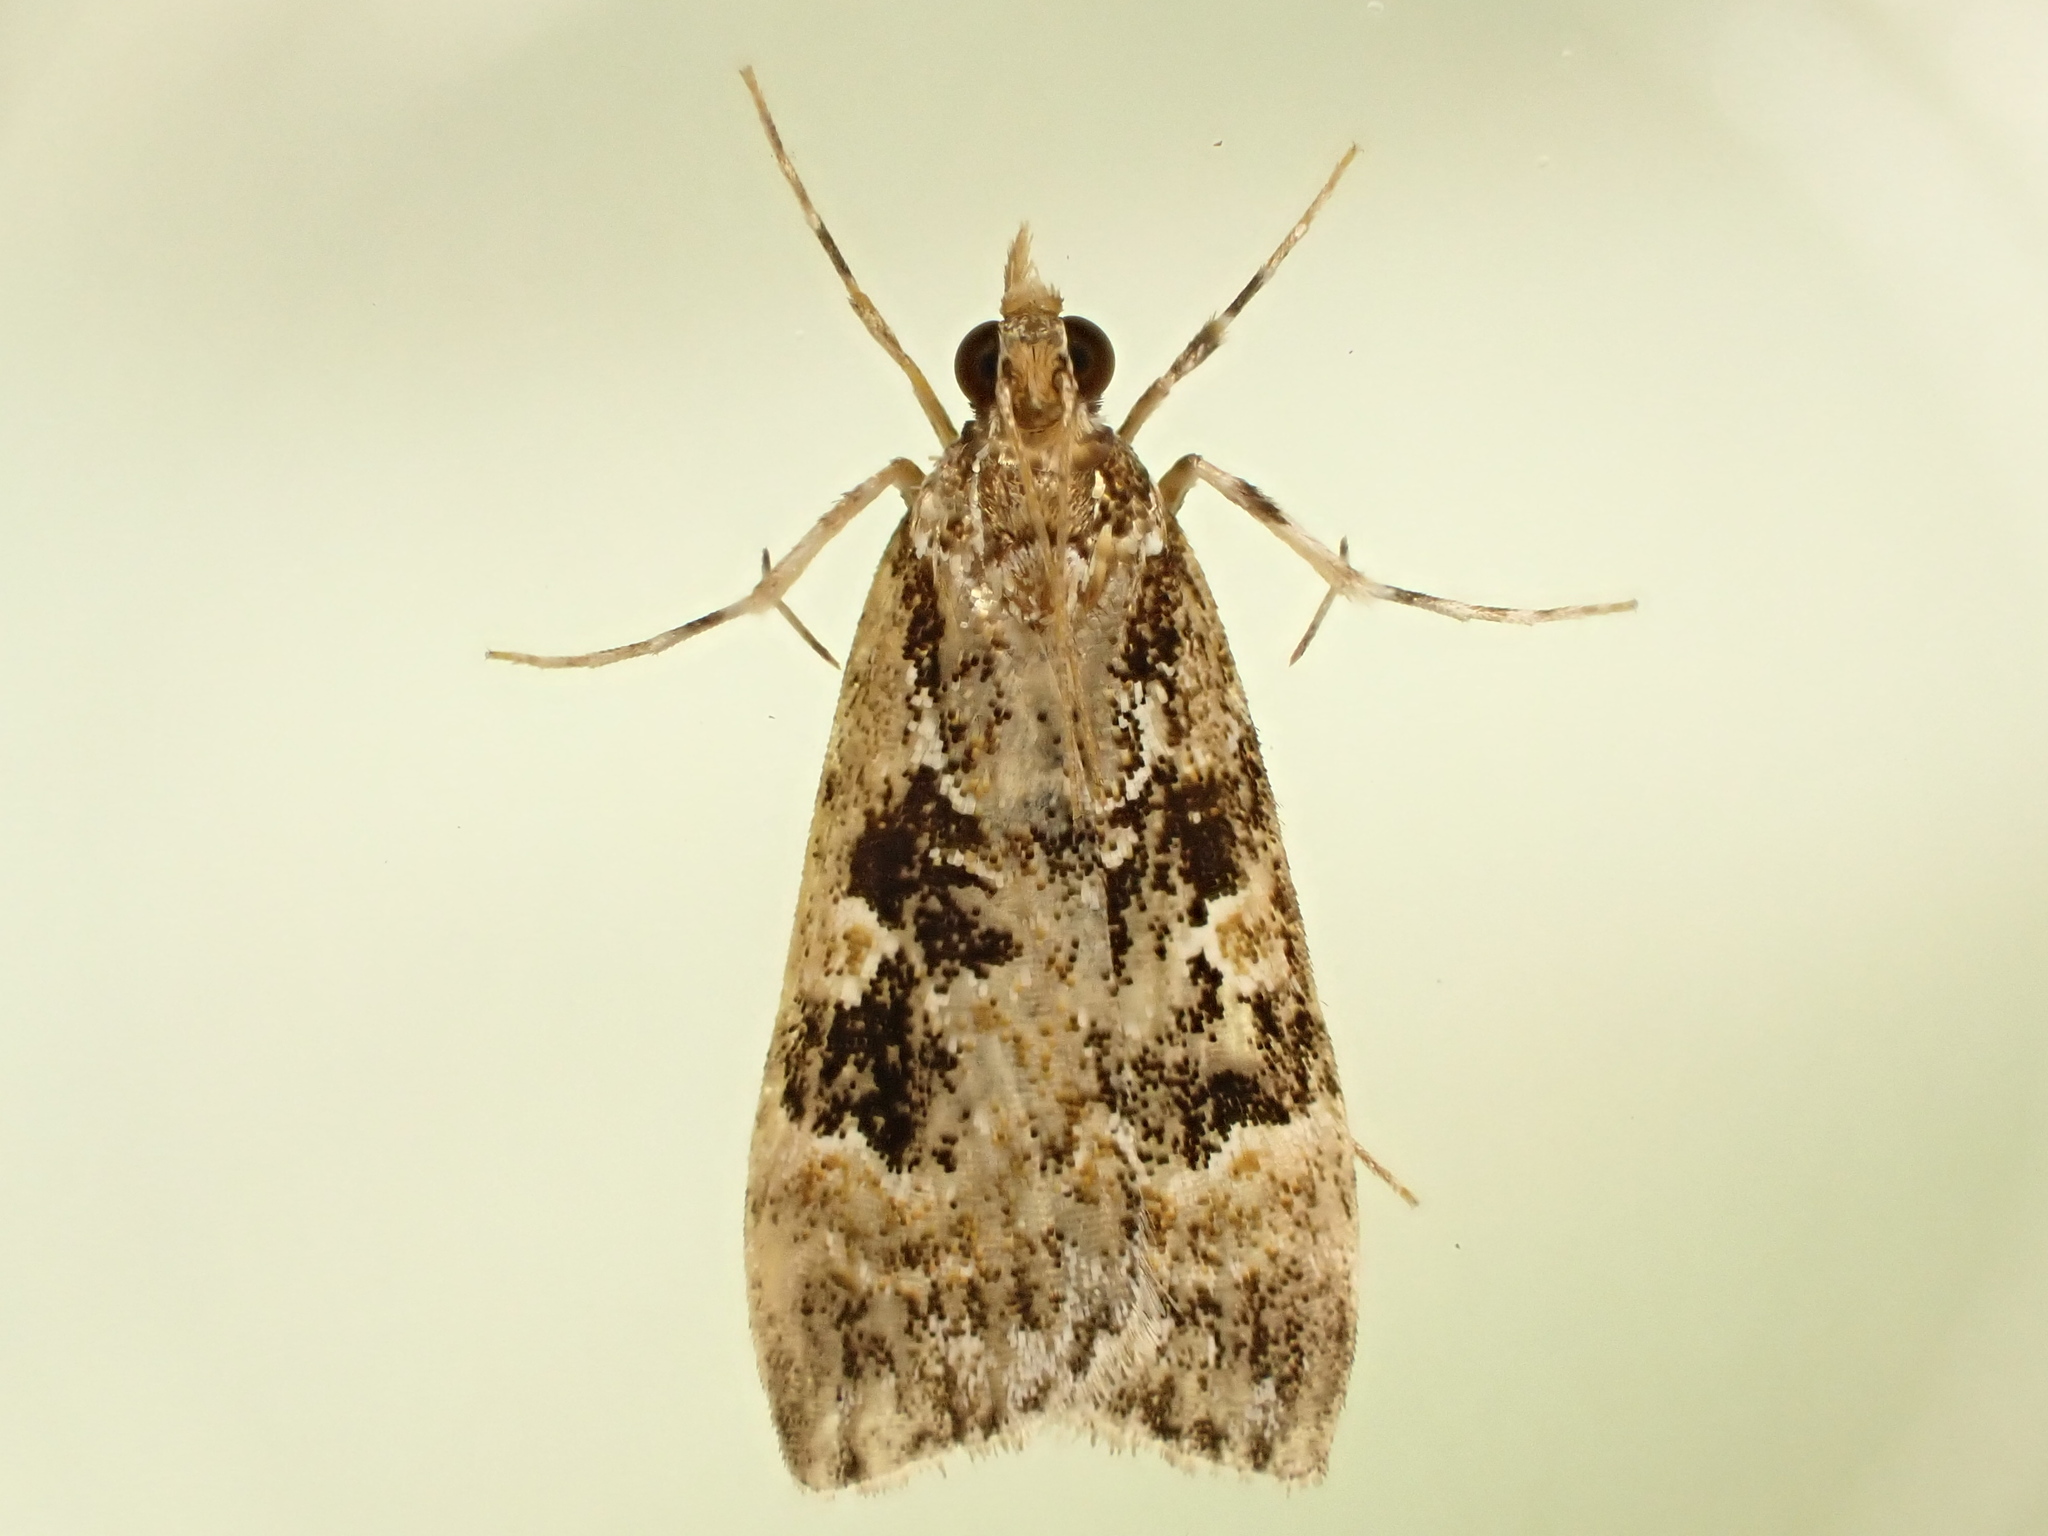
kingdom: Animalia
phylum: Arthropoda
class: Insecta
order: Lepidoptera
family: Crambidae
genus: Scoparia
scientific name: Scoparia ustimacula
